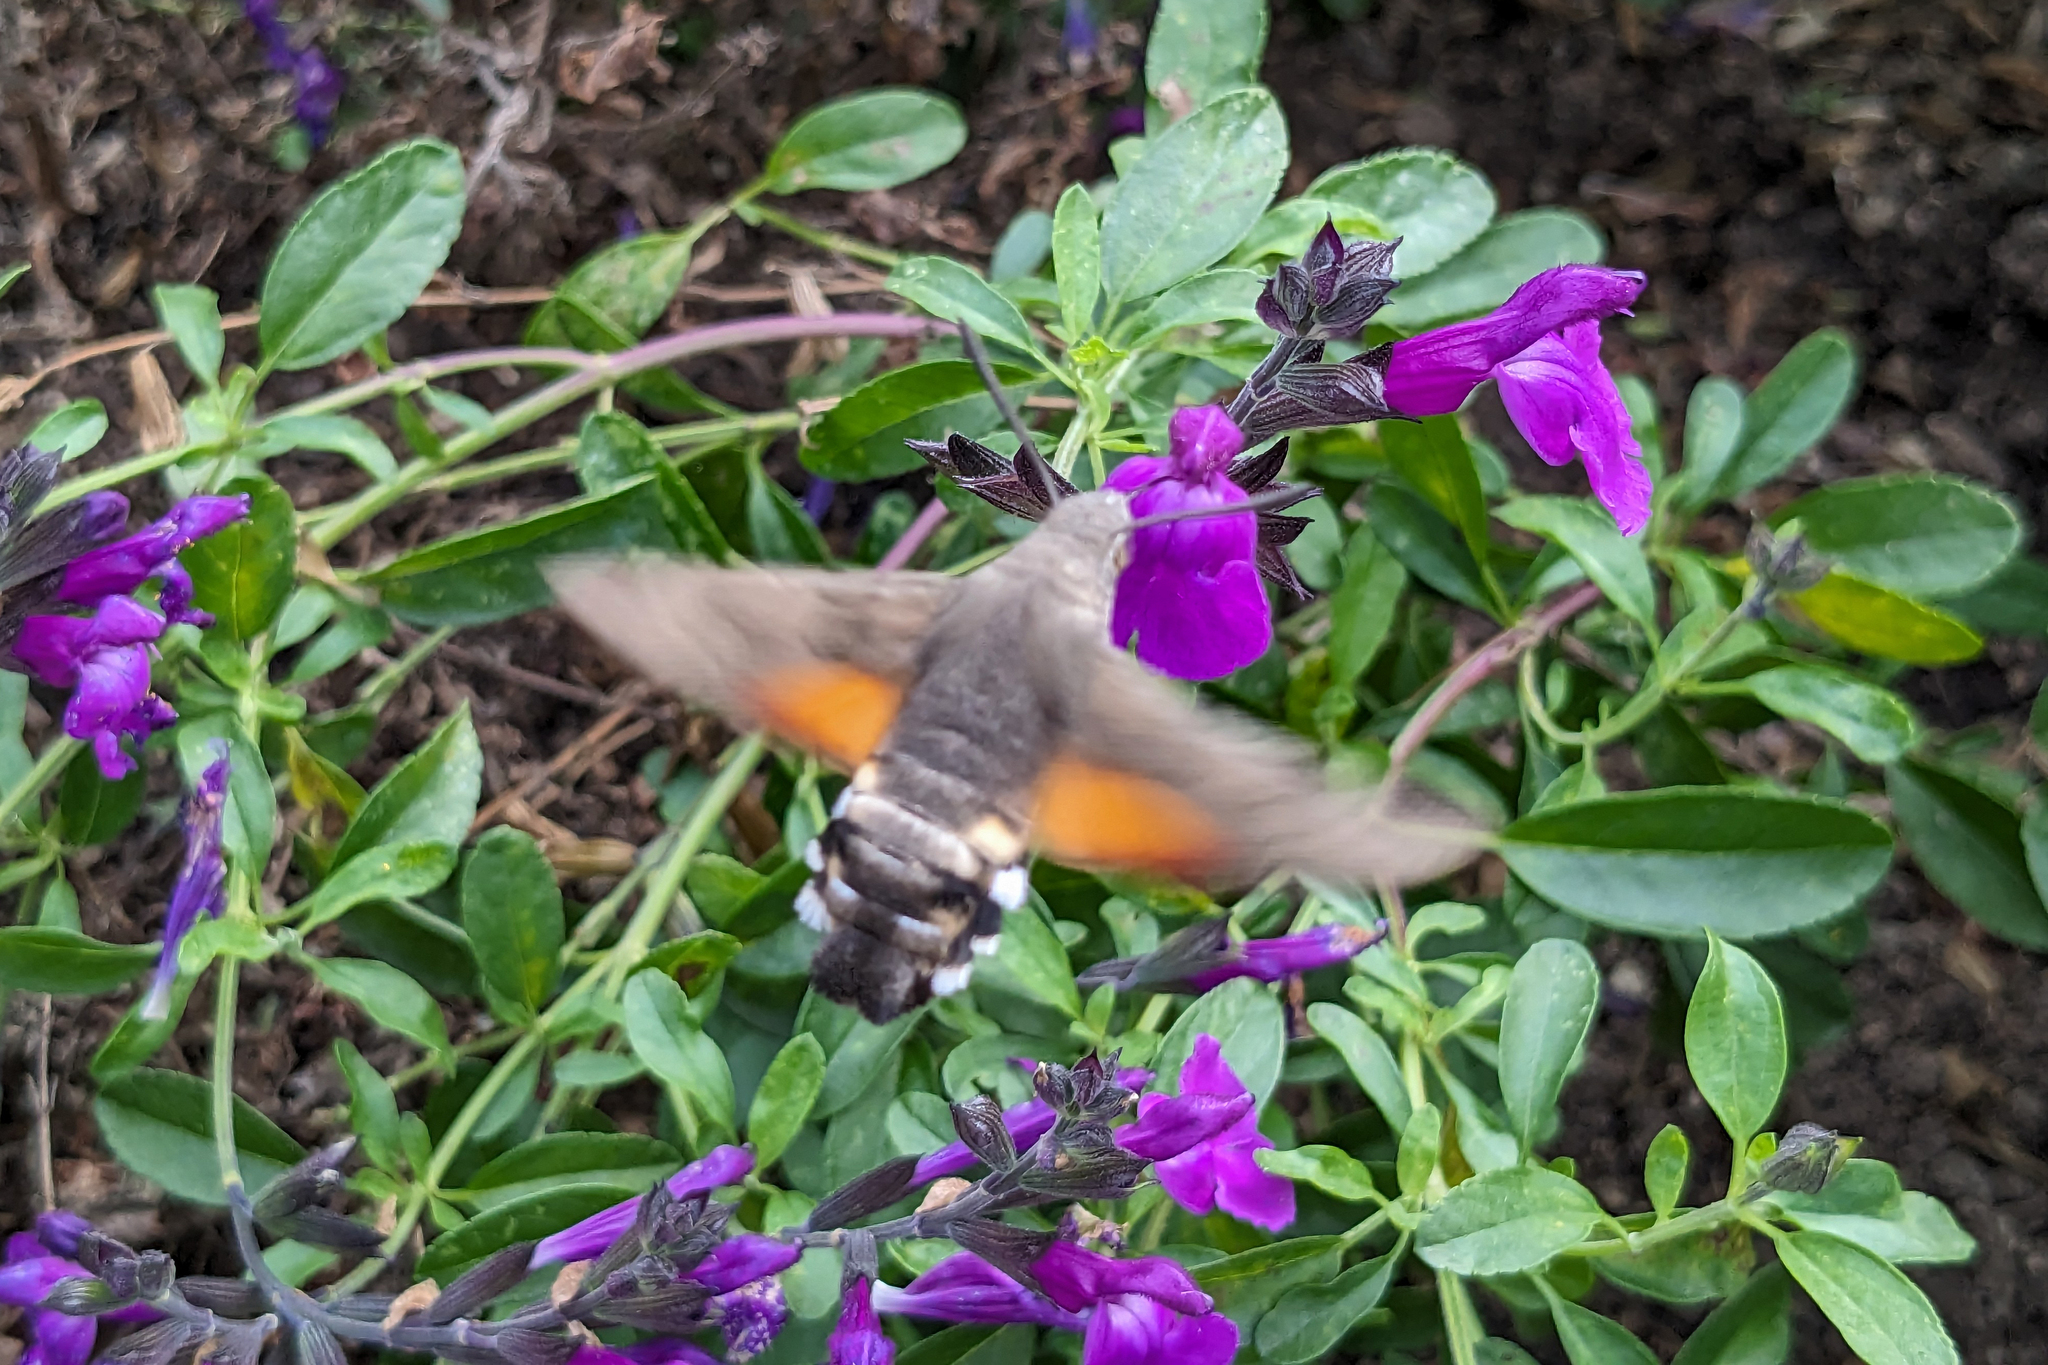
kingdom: Animalia
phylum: Arthropoda
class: Insecta
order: Lepidoptera
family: Sphingidae
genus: Macroglossum
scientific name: Macroglossum stellatarum
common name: Humming-bird hawk-moth
